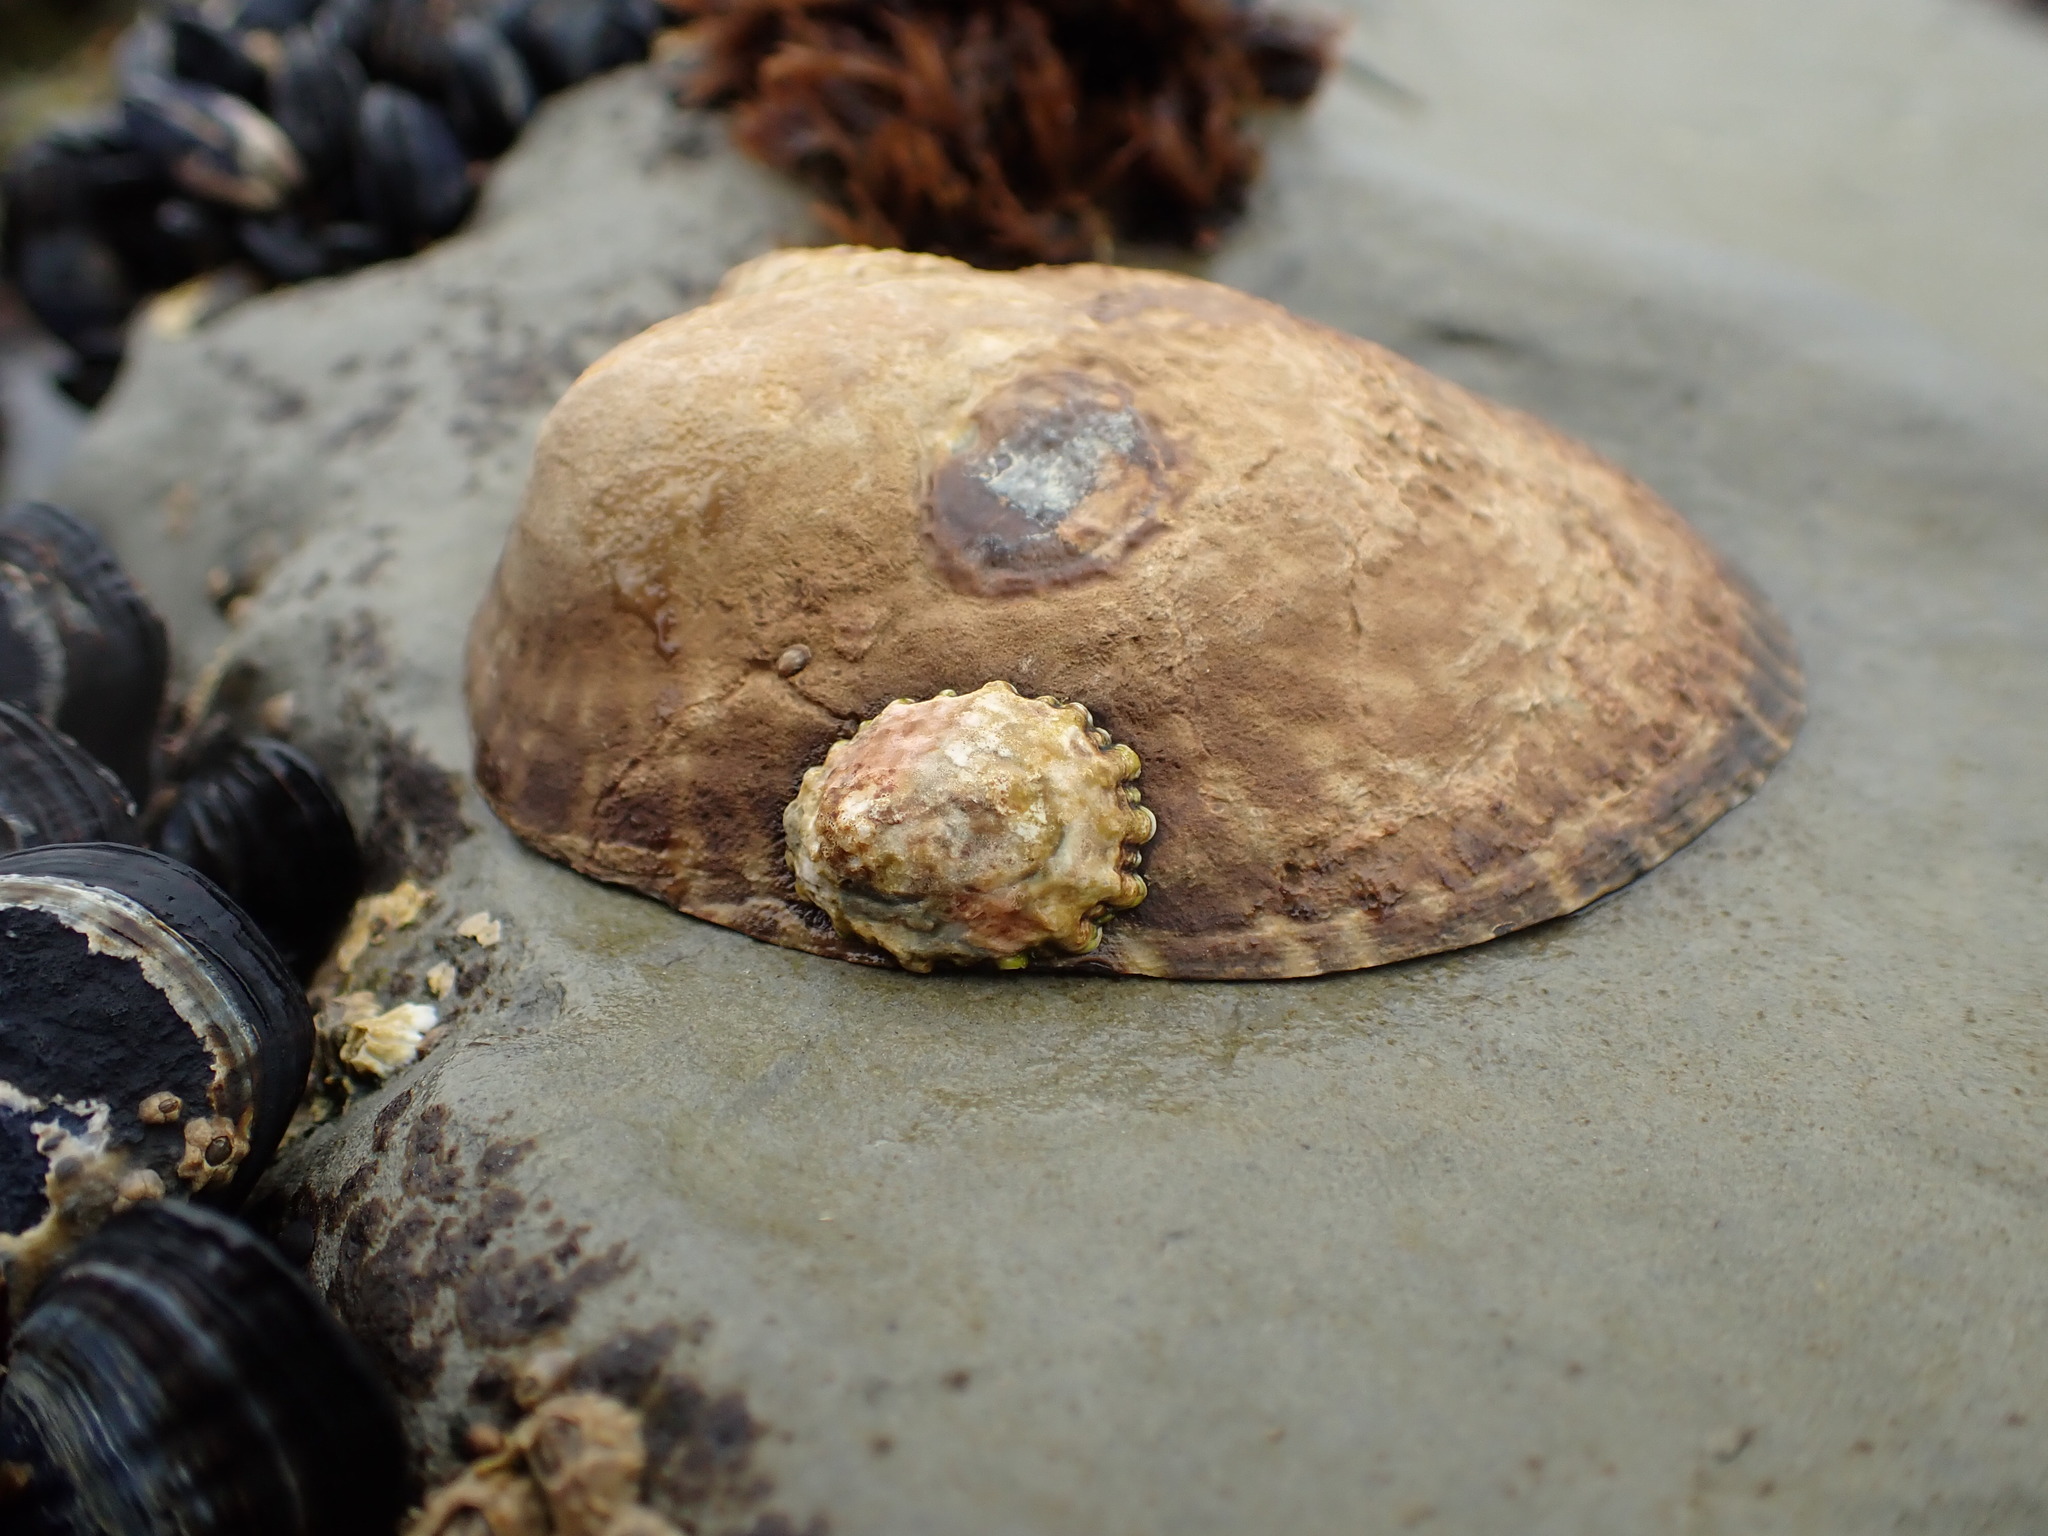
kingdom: Animalia
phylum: Mollusca
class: Gastropoda
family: Lottiidae
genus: Lottia
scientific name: Lottia gigantea
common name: Owl limpet
